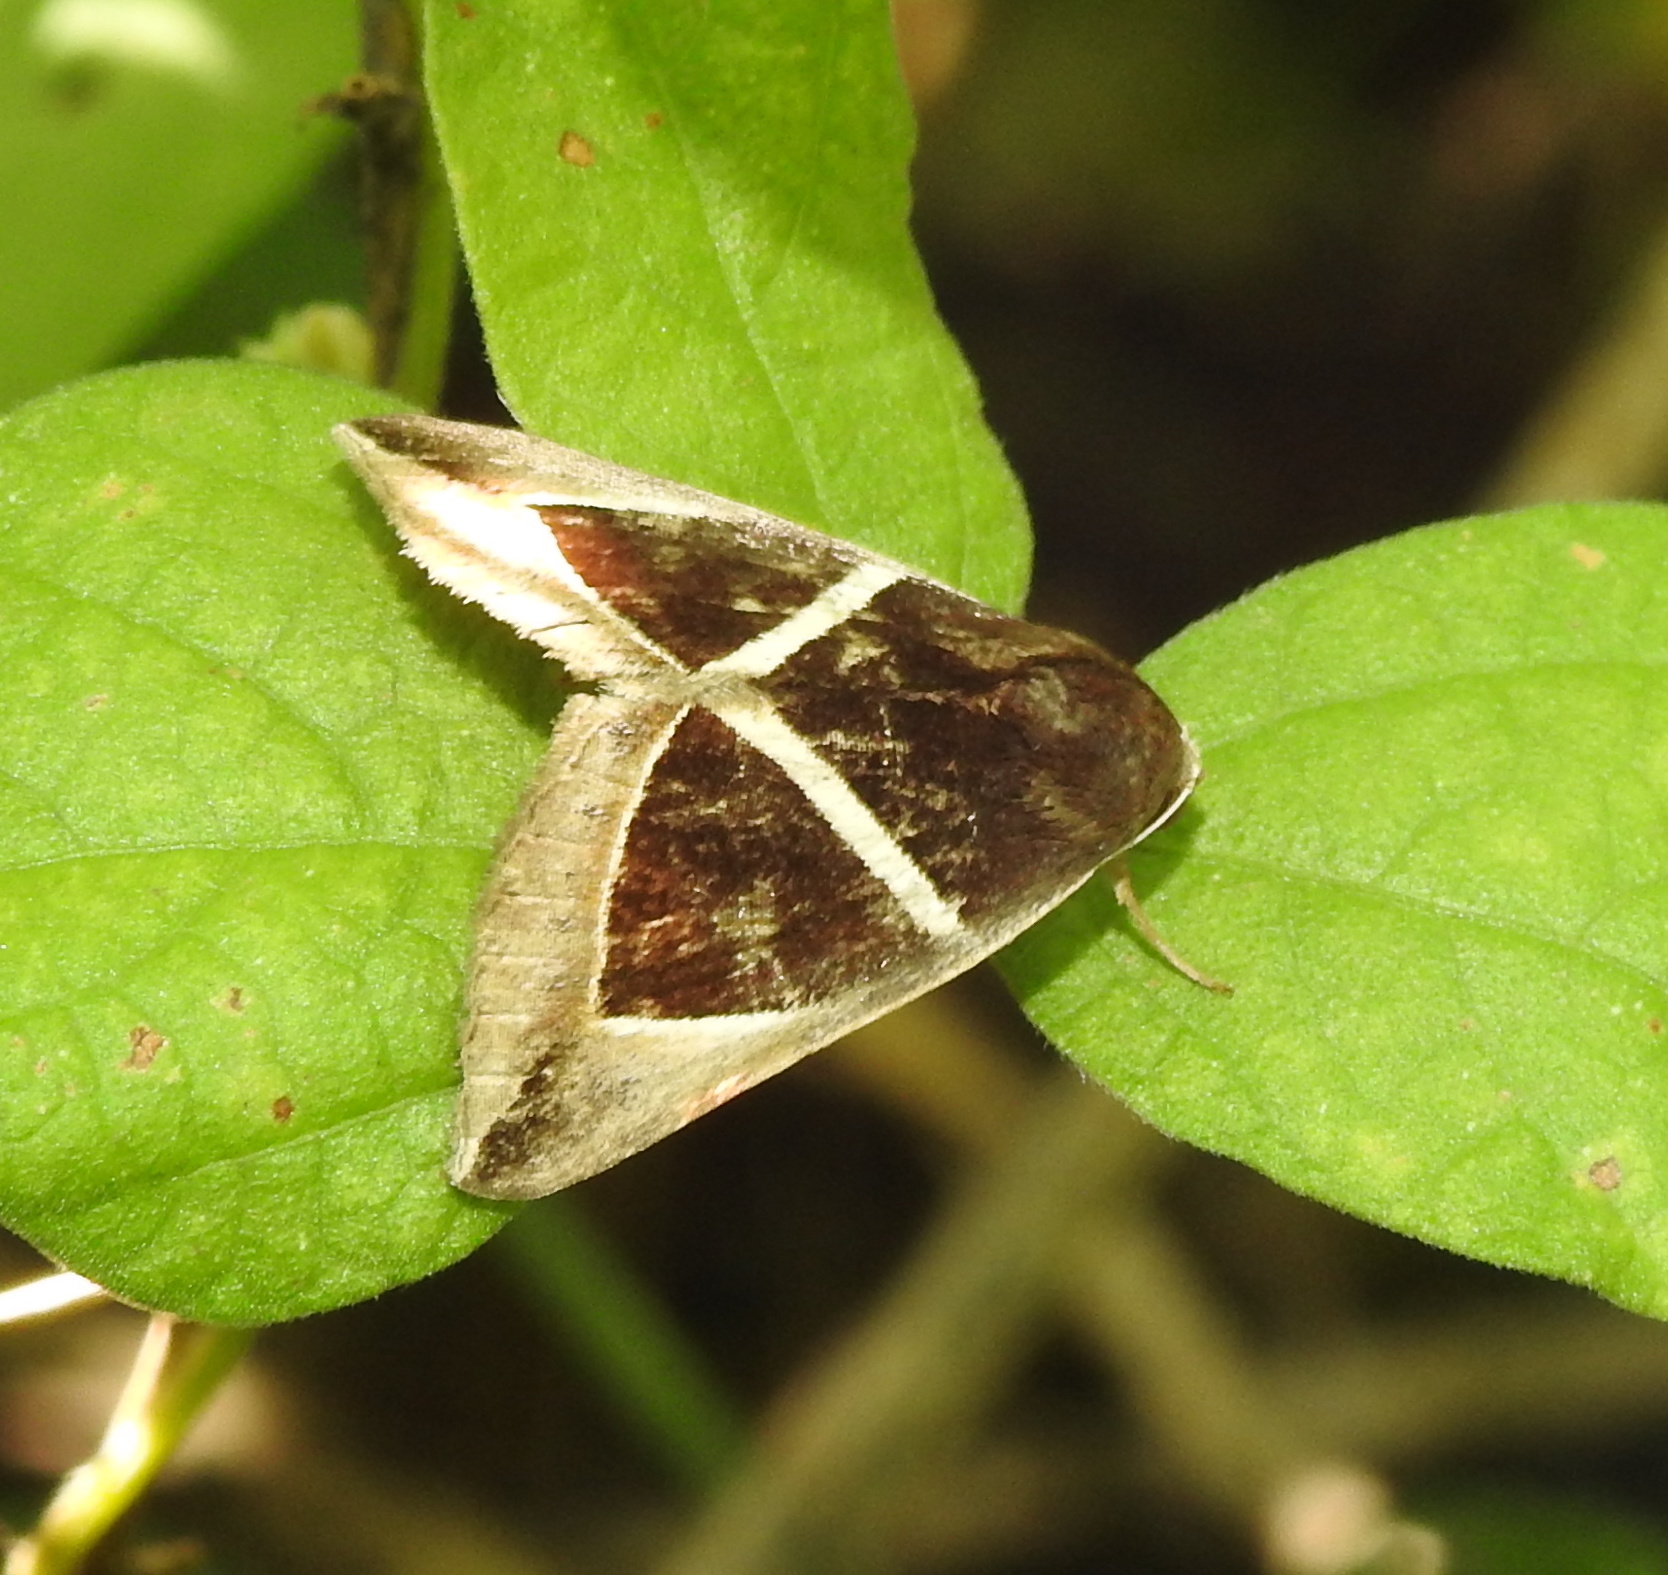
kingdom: Animalia
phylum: Arthropoda
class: Insecta
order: Lepidoptera
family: Erebidae
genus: Chalciope
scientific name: Chalciope mygdon
